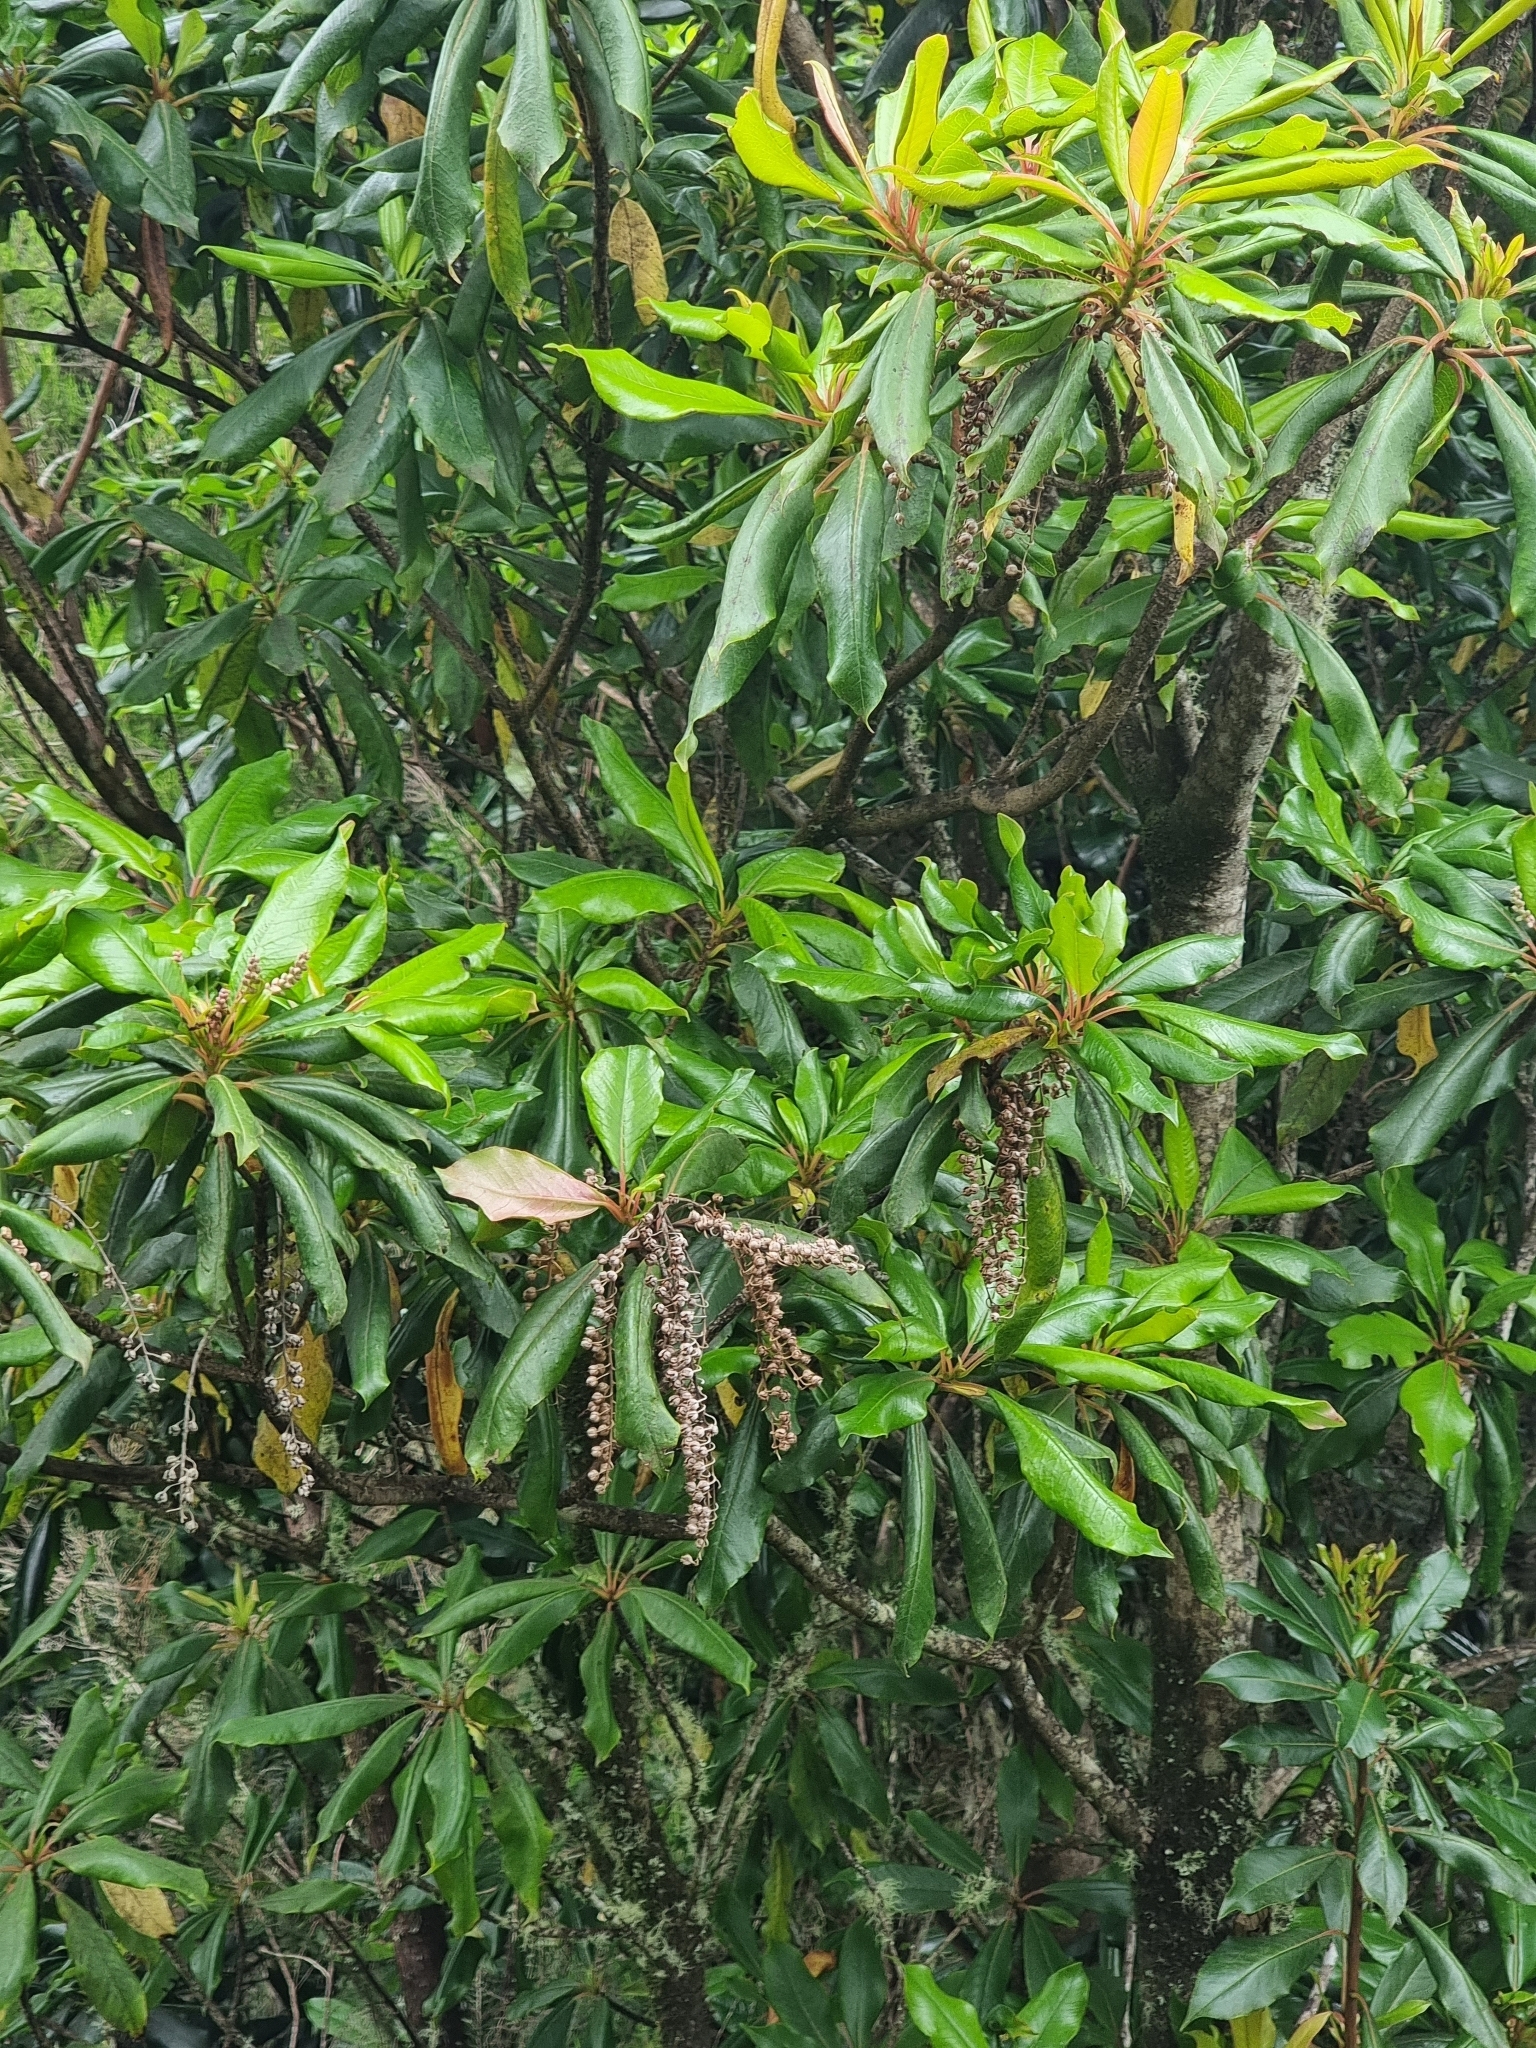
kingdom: Plantae
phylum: Tracheophyta
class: Magnoliopsida
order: Ericales
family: Clethraceae
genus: Clethra
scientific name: Clethra arborea
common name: Lily-of-the-valley-tree
